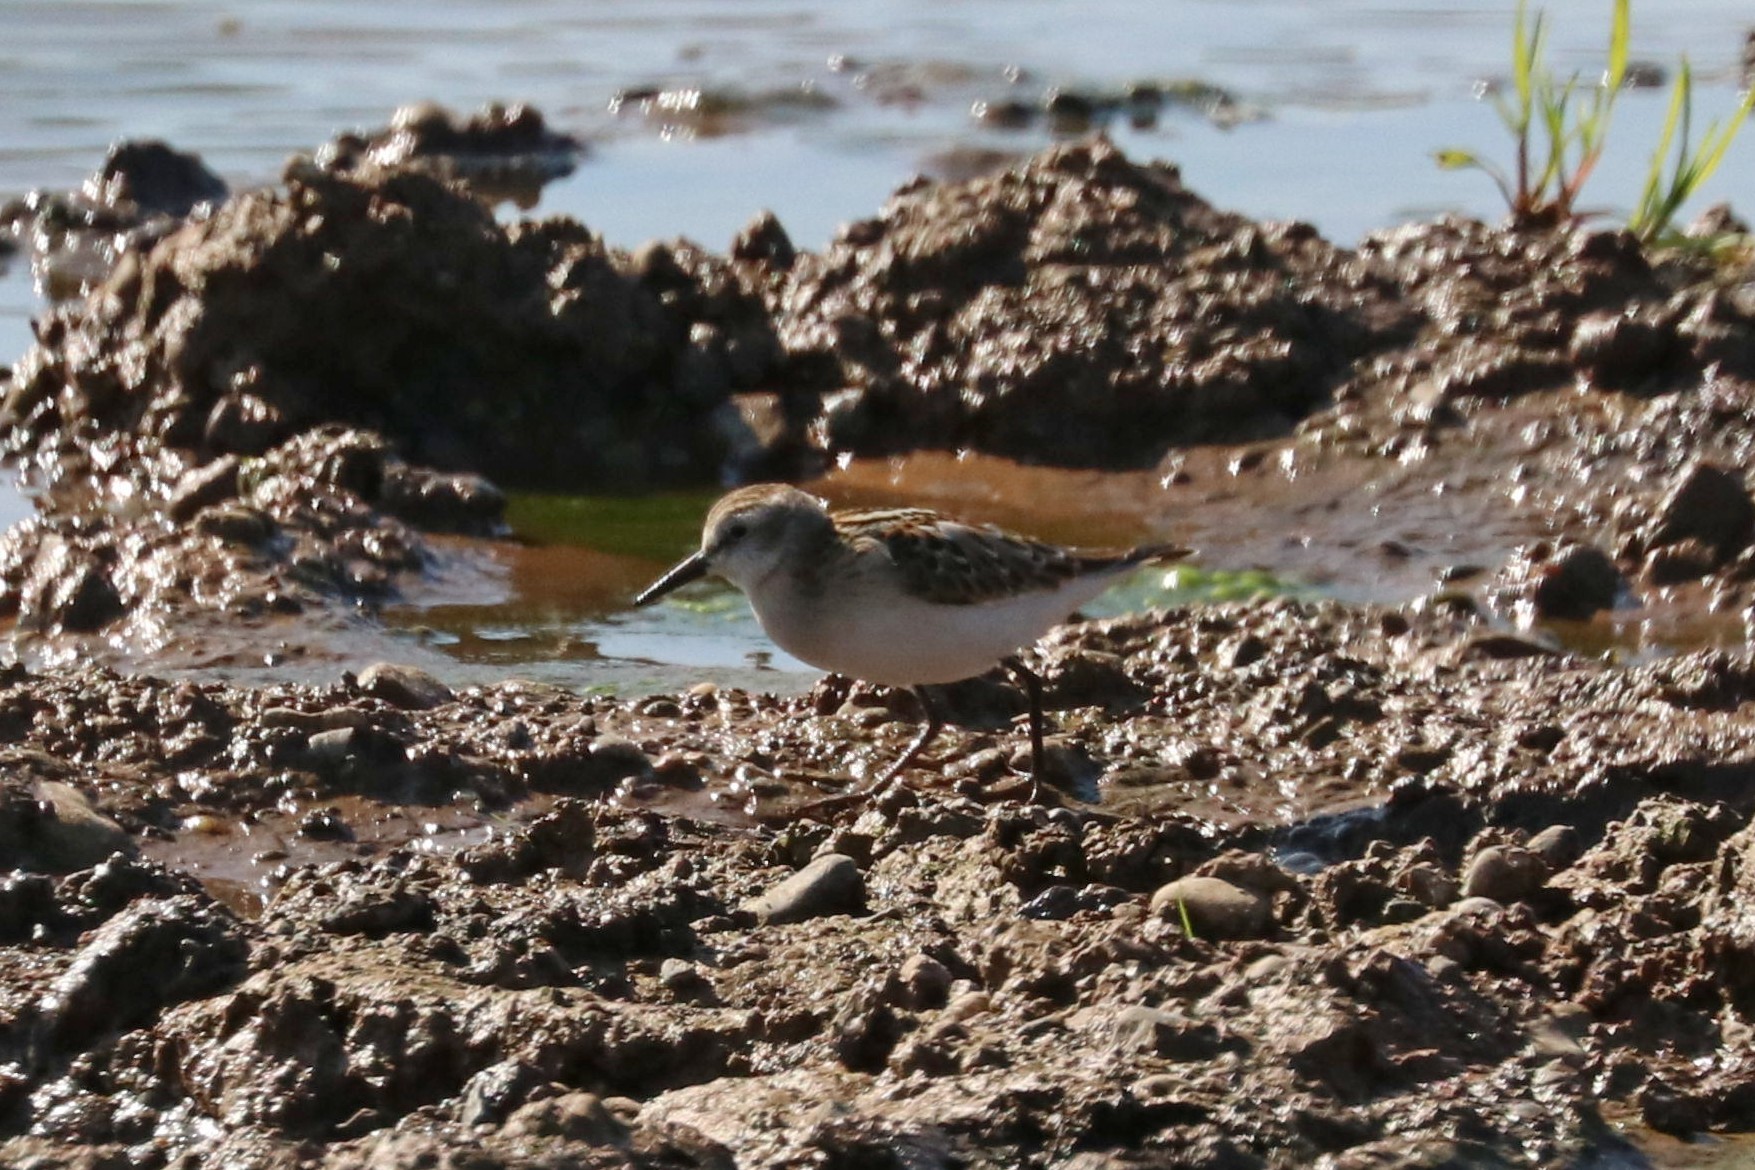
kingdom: Animalia
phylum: Chordata
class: Aves
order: Charadriiformes
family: Scolopacidae
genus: Calidris
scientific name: Calidris minuta
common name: Little stint
